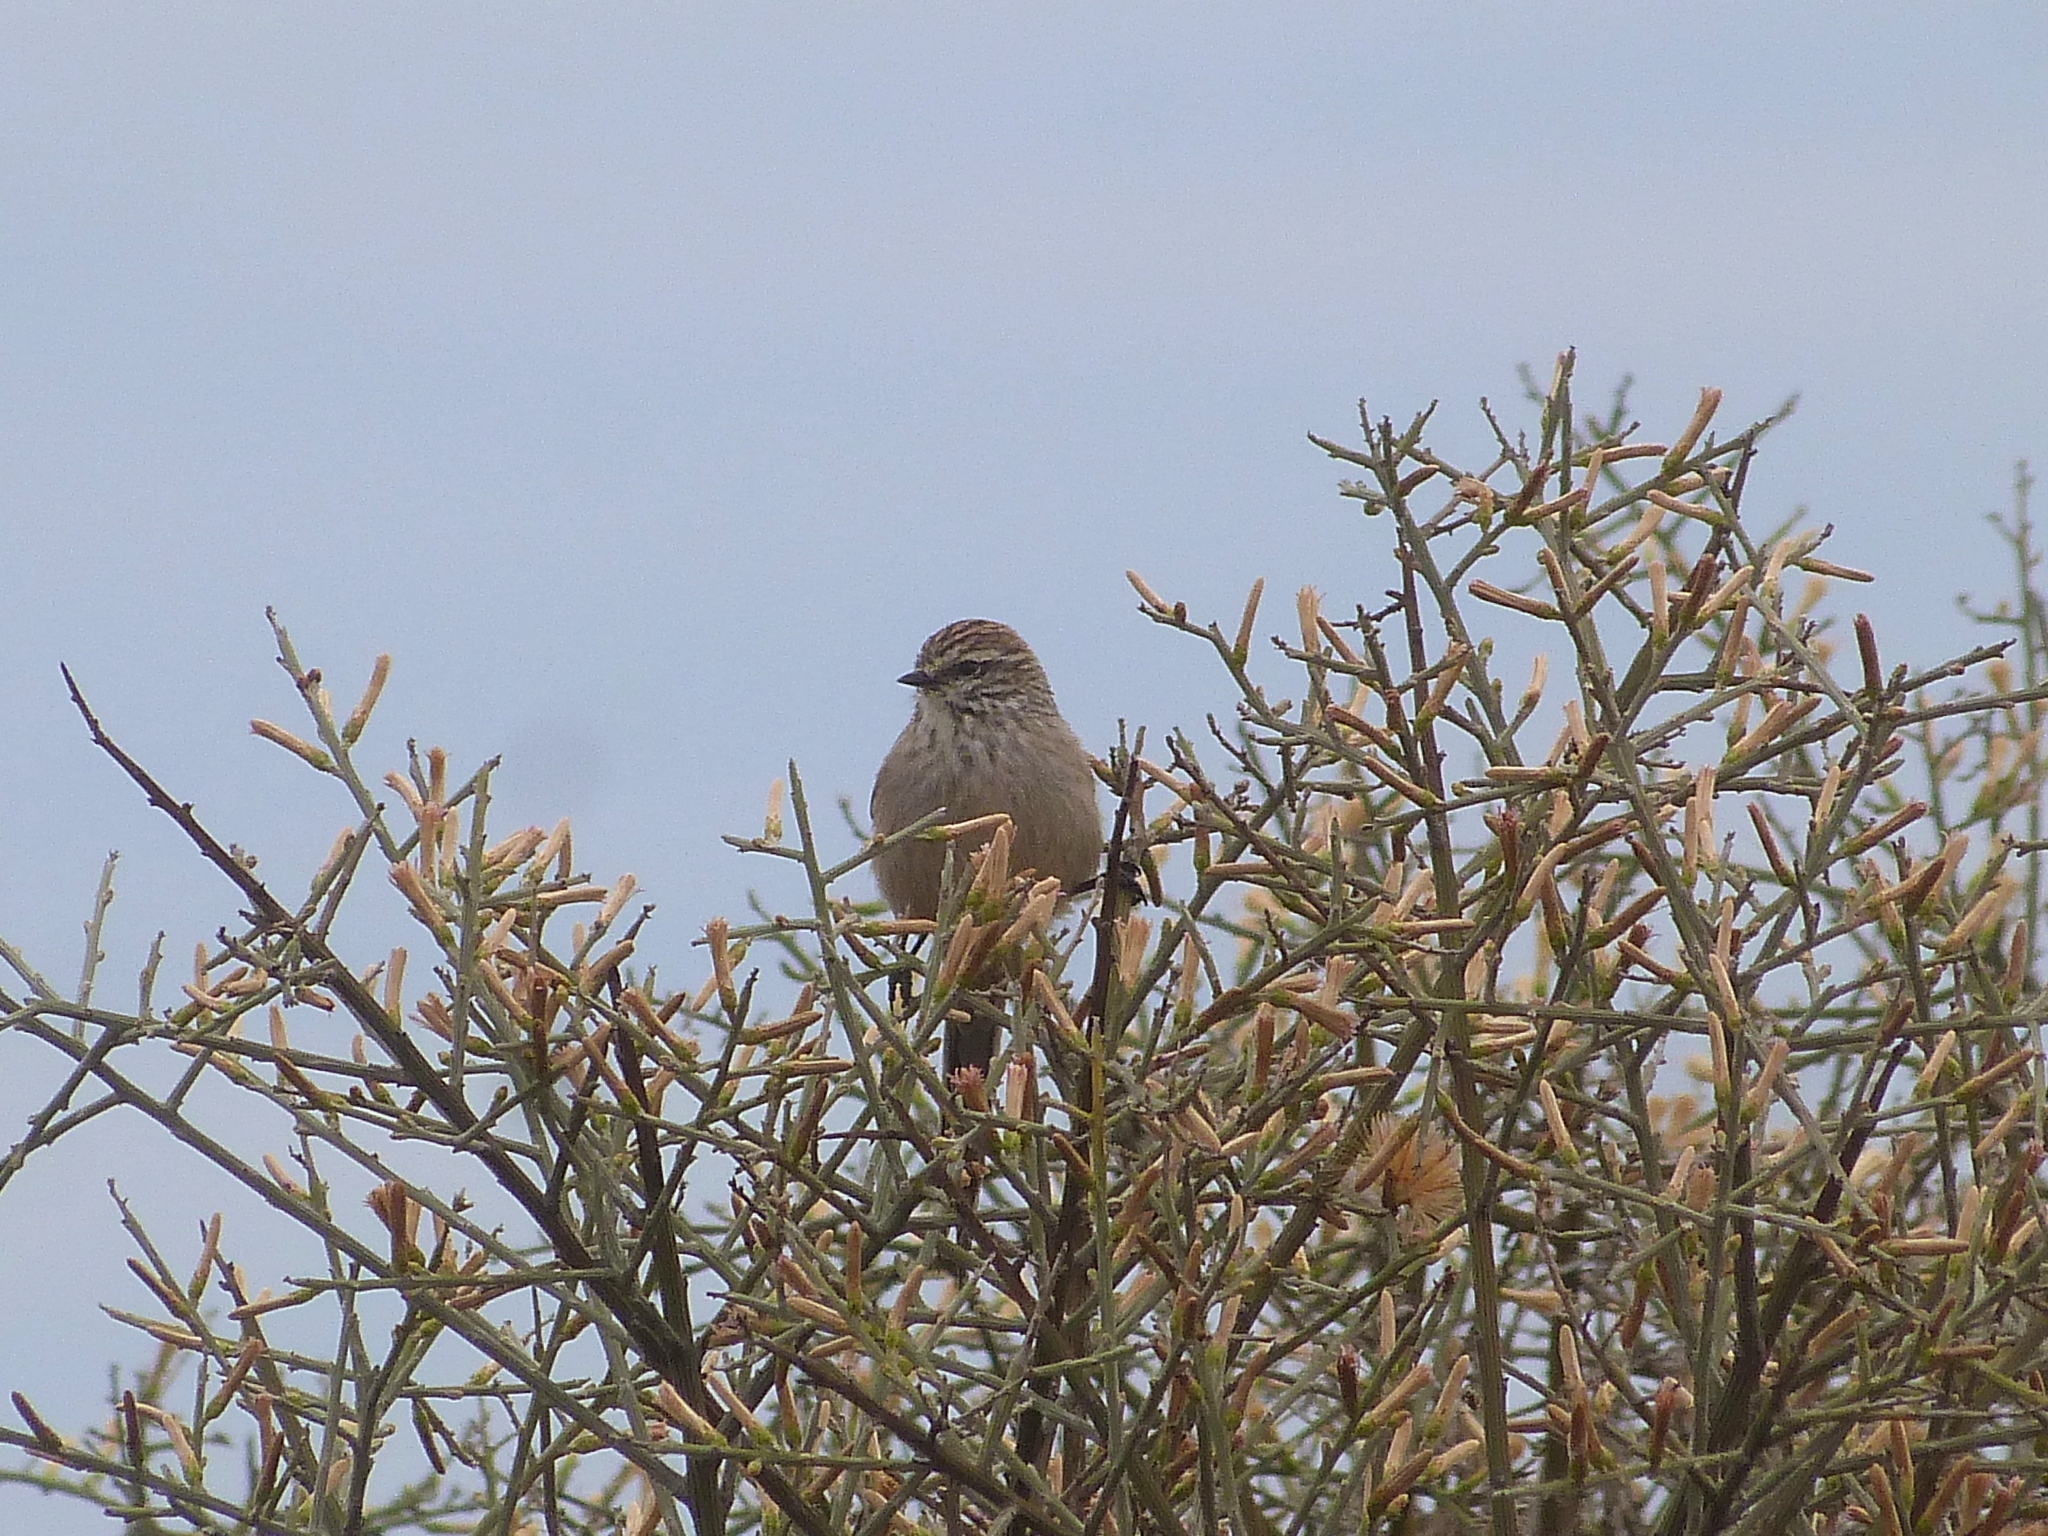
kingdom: Animalia
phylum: Chordata
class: Aves
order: Passeriformes
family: Furnariidae
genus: Leptasthenura
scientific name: Leptasthenura aegithaloides
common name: Plain-mantled tit-spinetail
